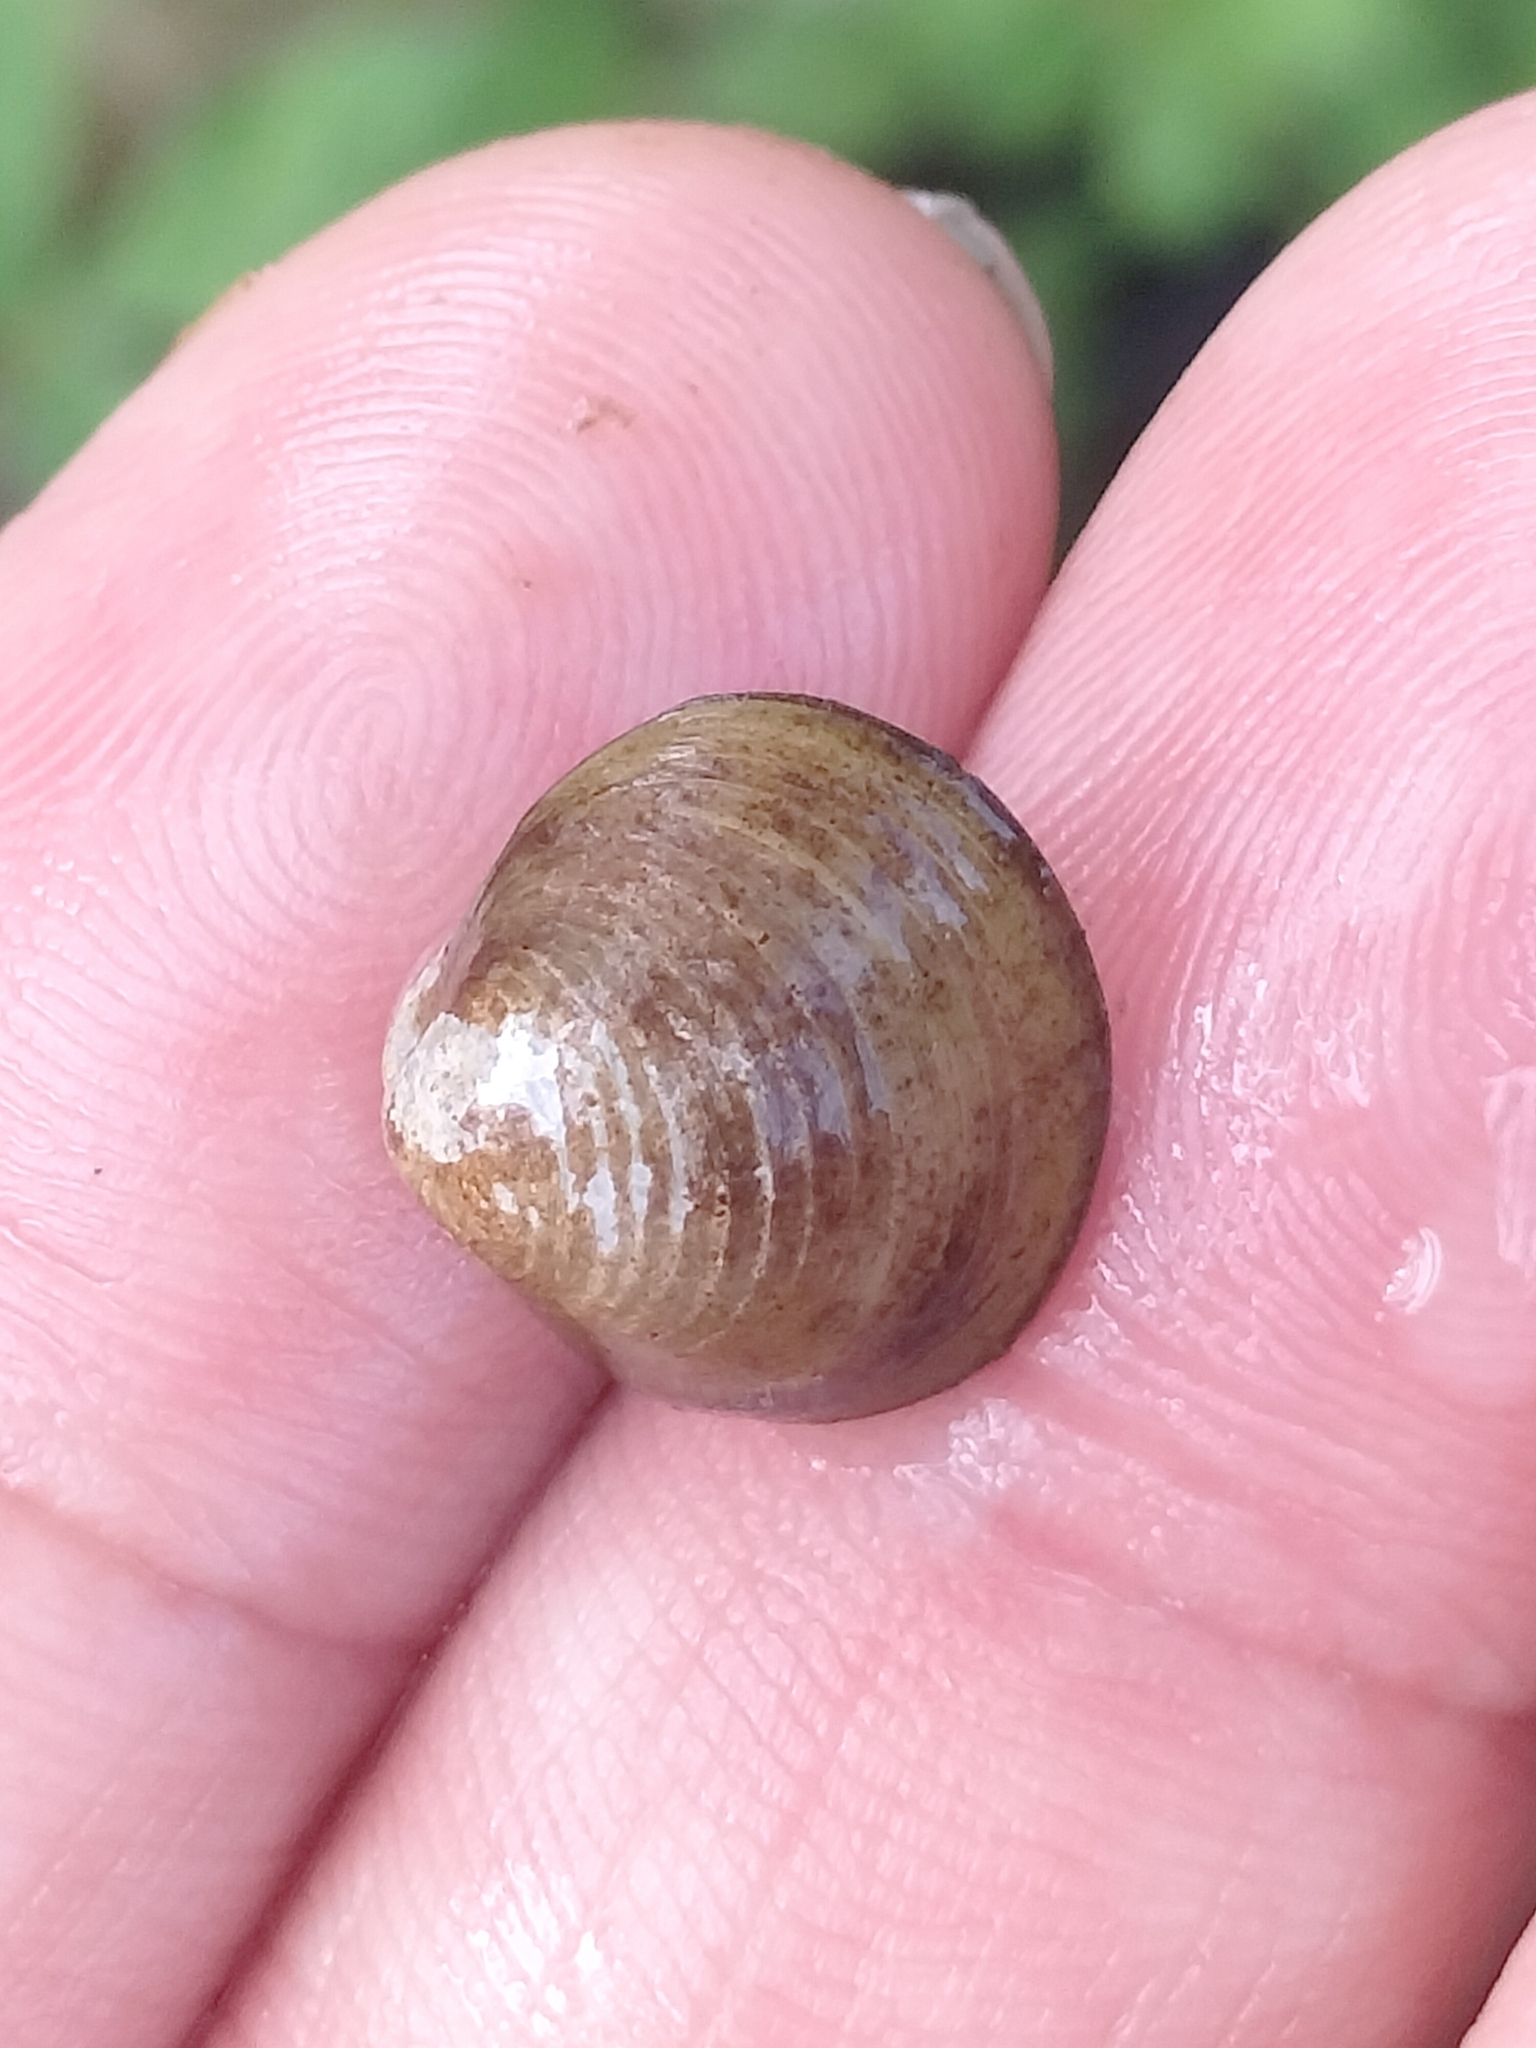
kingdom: Animalia
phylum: Mollusca
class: Bivalvia
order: Venerida
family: Cyrenidae
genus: Corbicula
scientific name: Corbicula fluminea
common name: Asian clam
